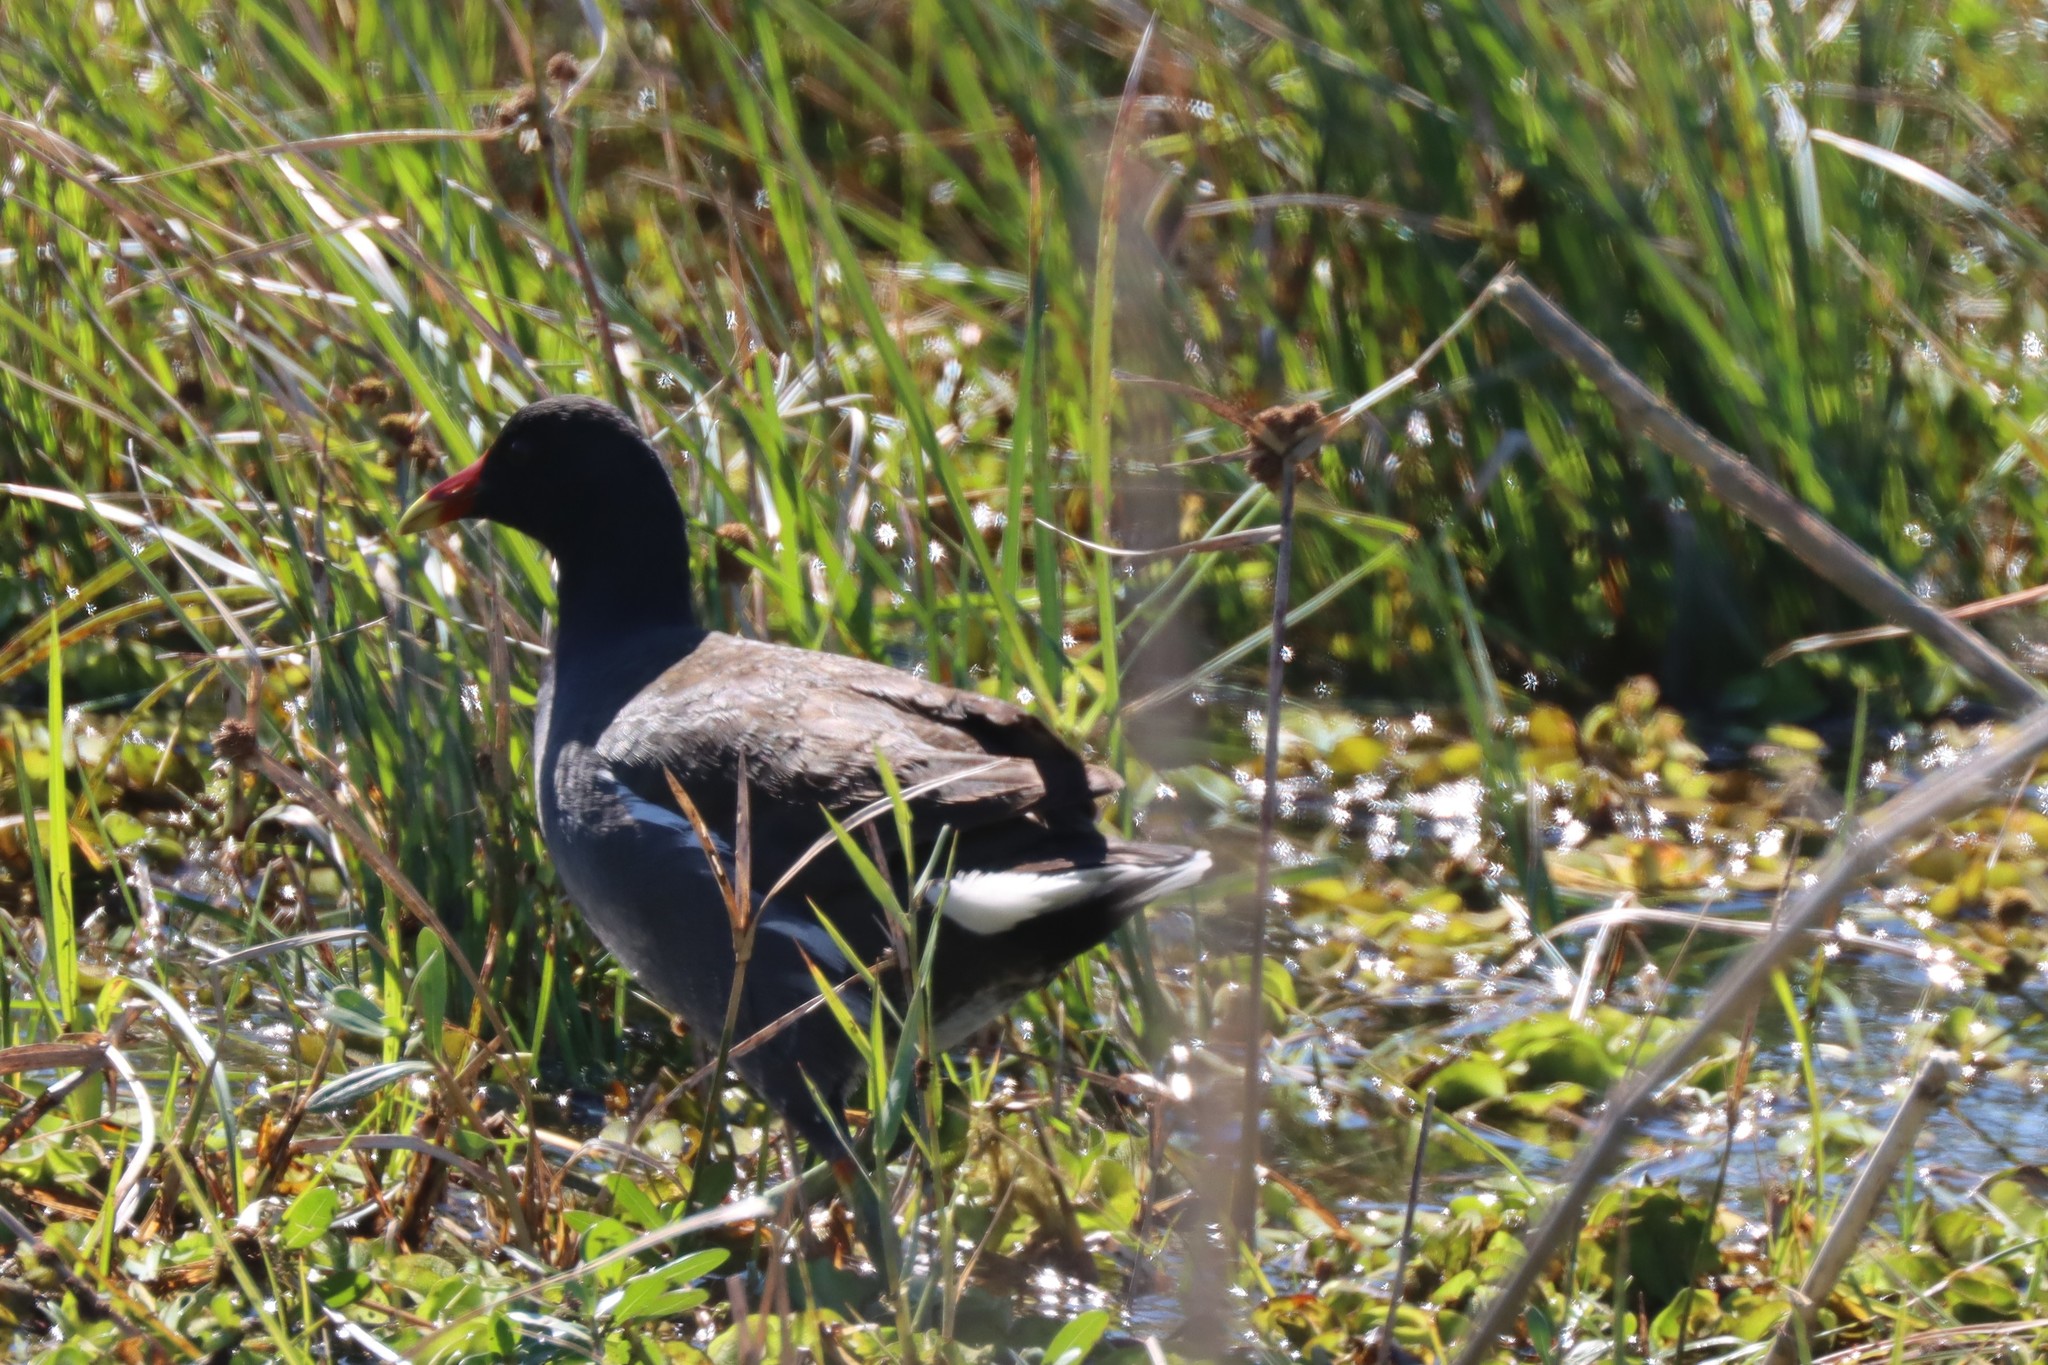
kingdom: Animalia
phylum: Chordata
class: Aves
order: Gruiformes
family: Rallidae
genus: Gallinula
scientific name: Gallinula chloropus
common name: Common moorhen
